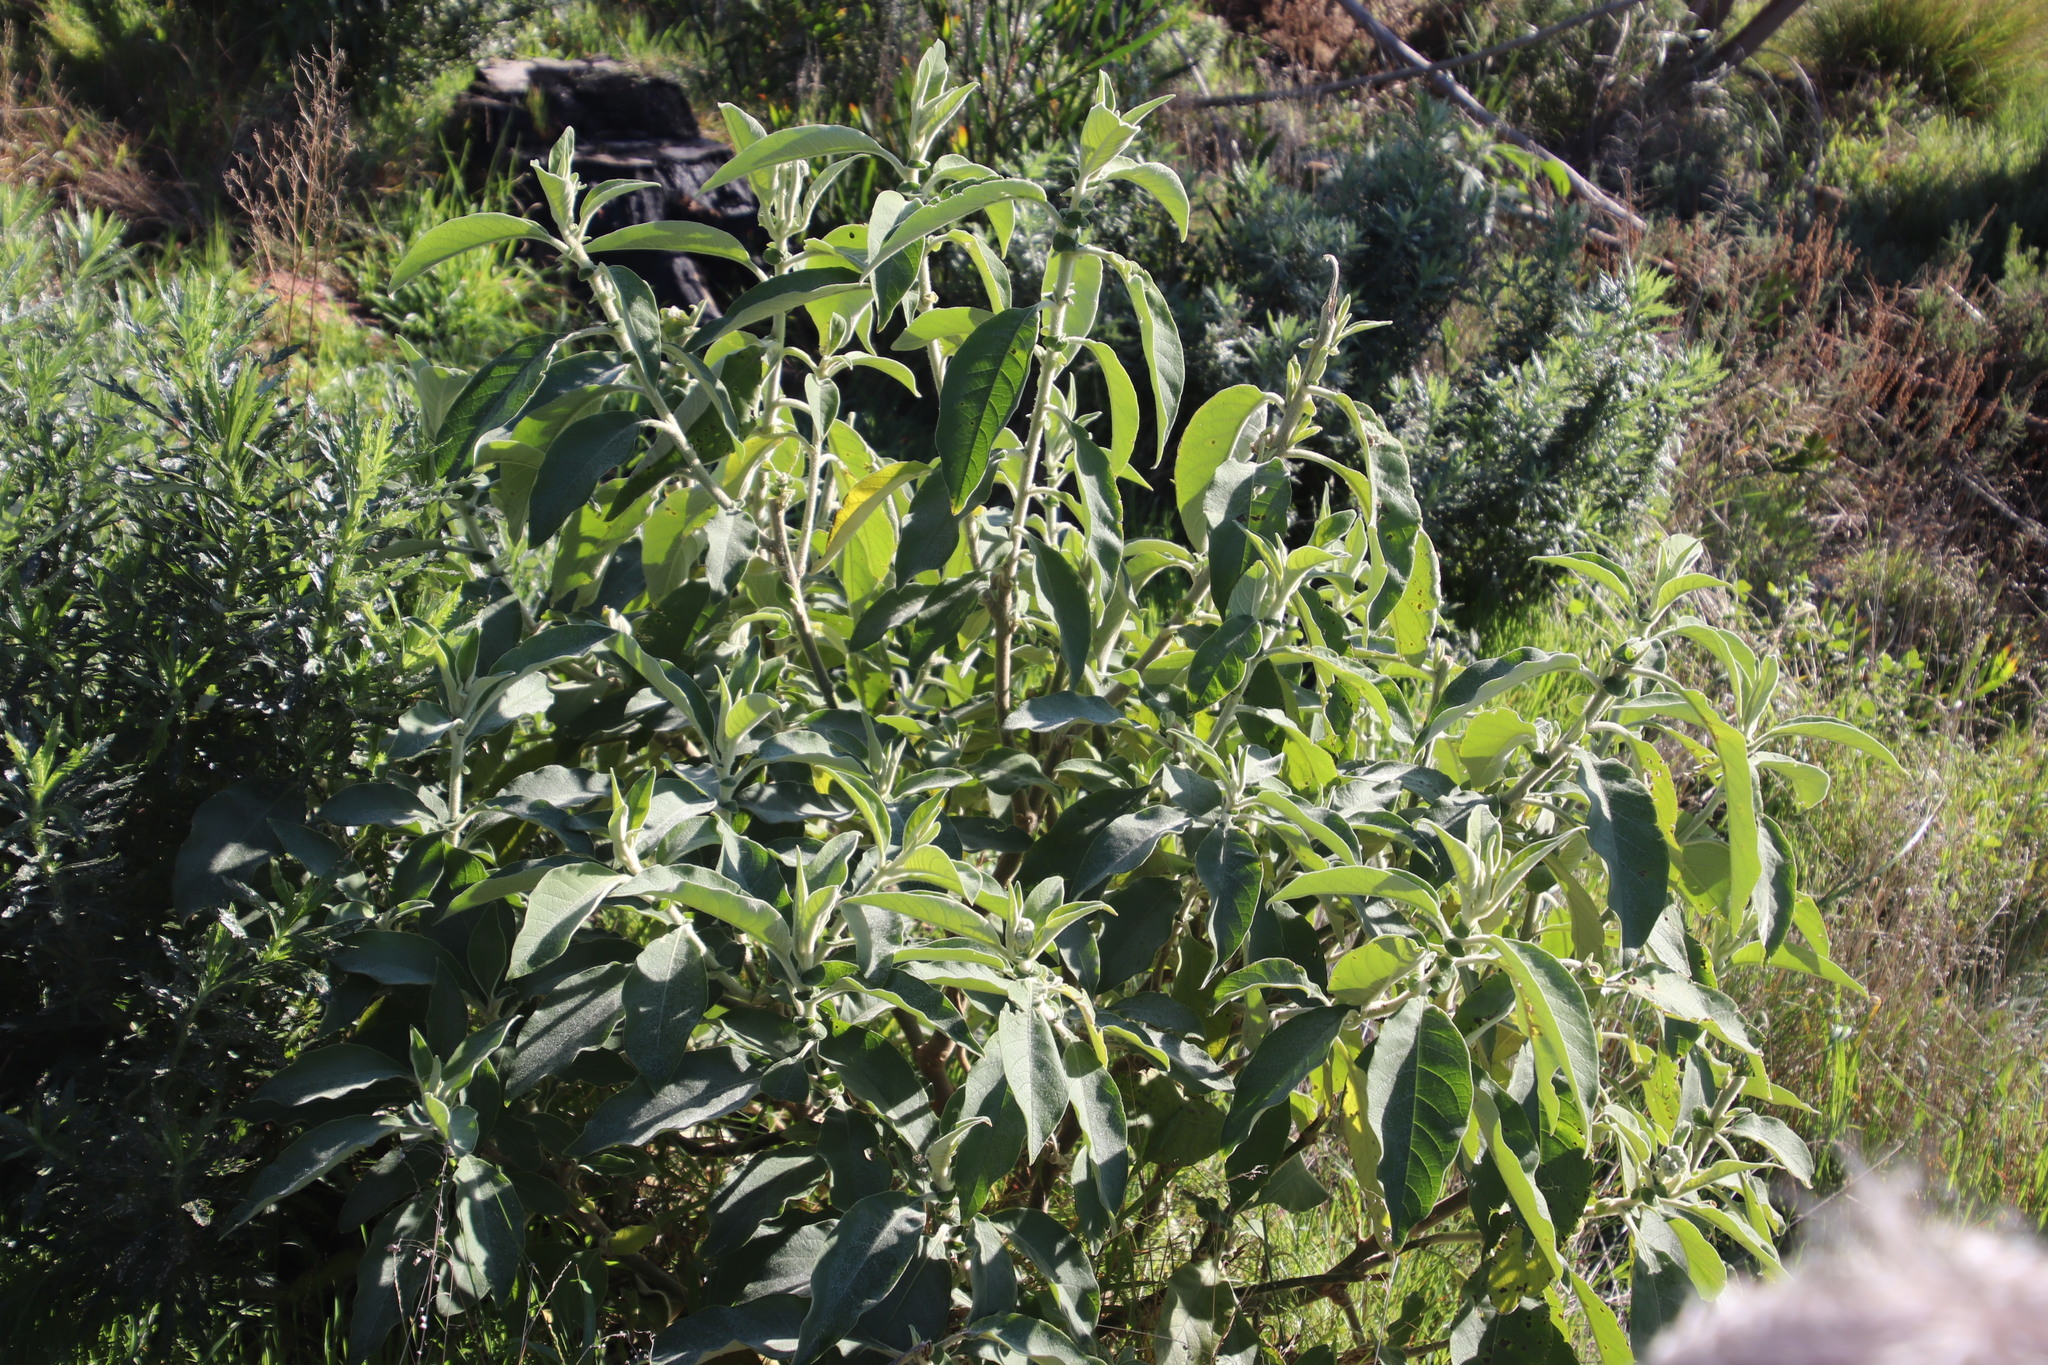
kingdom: Plantae
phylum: Tracheophyta
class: Magnoliopsida
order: Solanales
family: Solanaceae
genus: Solanum
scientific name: Solanum mauritianum
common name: Earleaf nightshade
